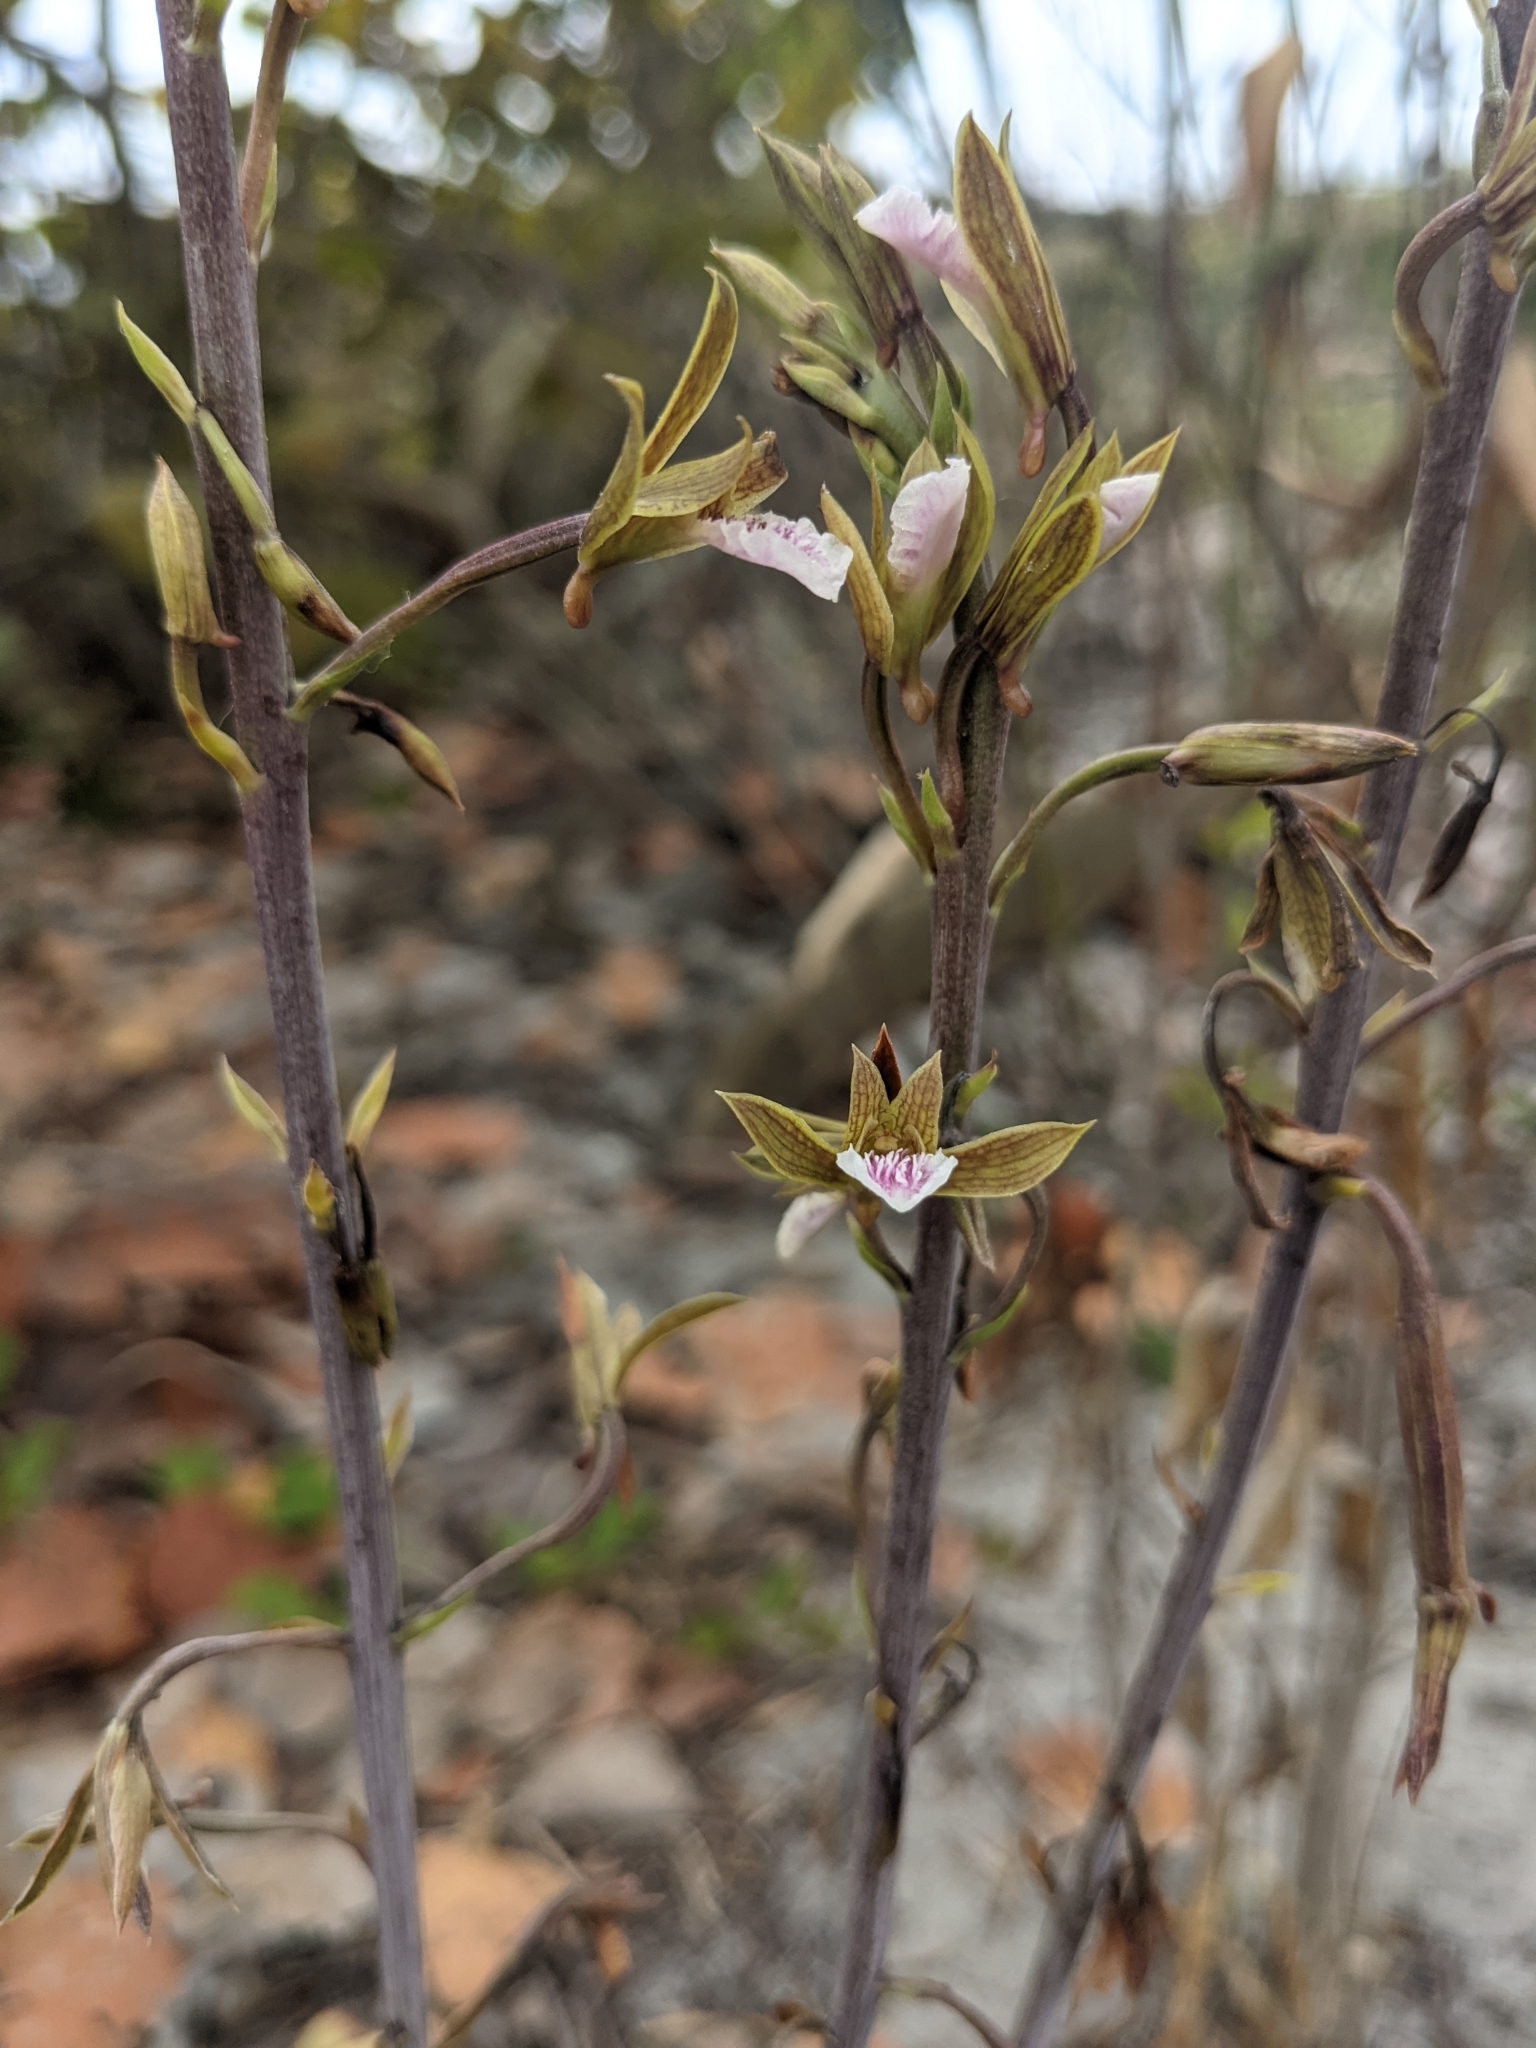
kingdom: Plantae
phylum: Tracheophyta
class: Liliopsida
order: Asparagales
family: Orchidaceae
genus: Eulophia
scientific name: Eulophia graminea
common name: Orchid
